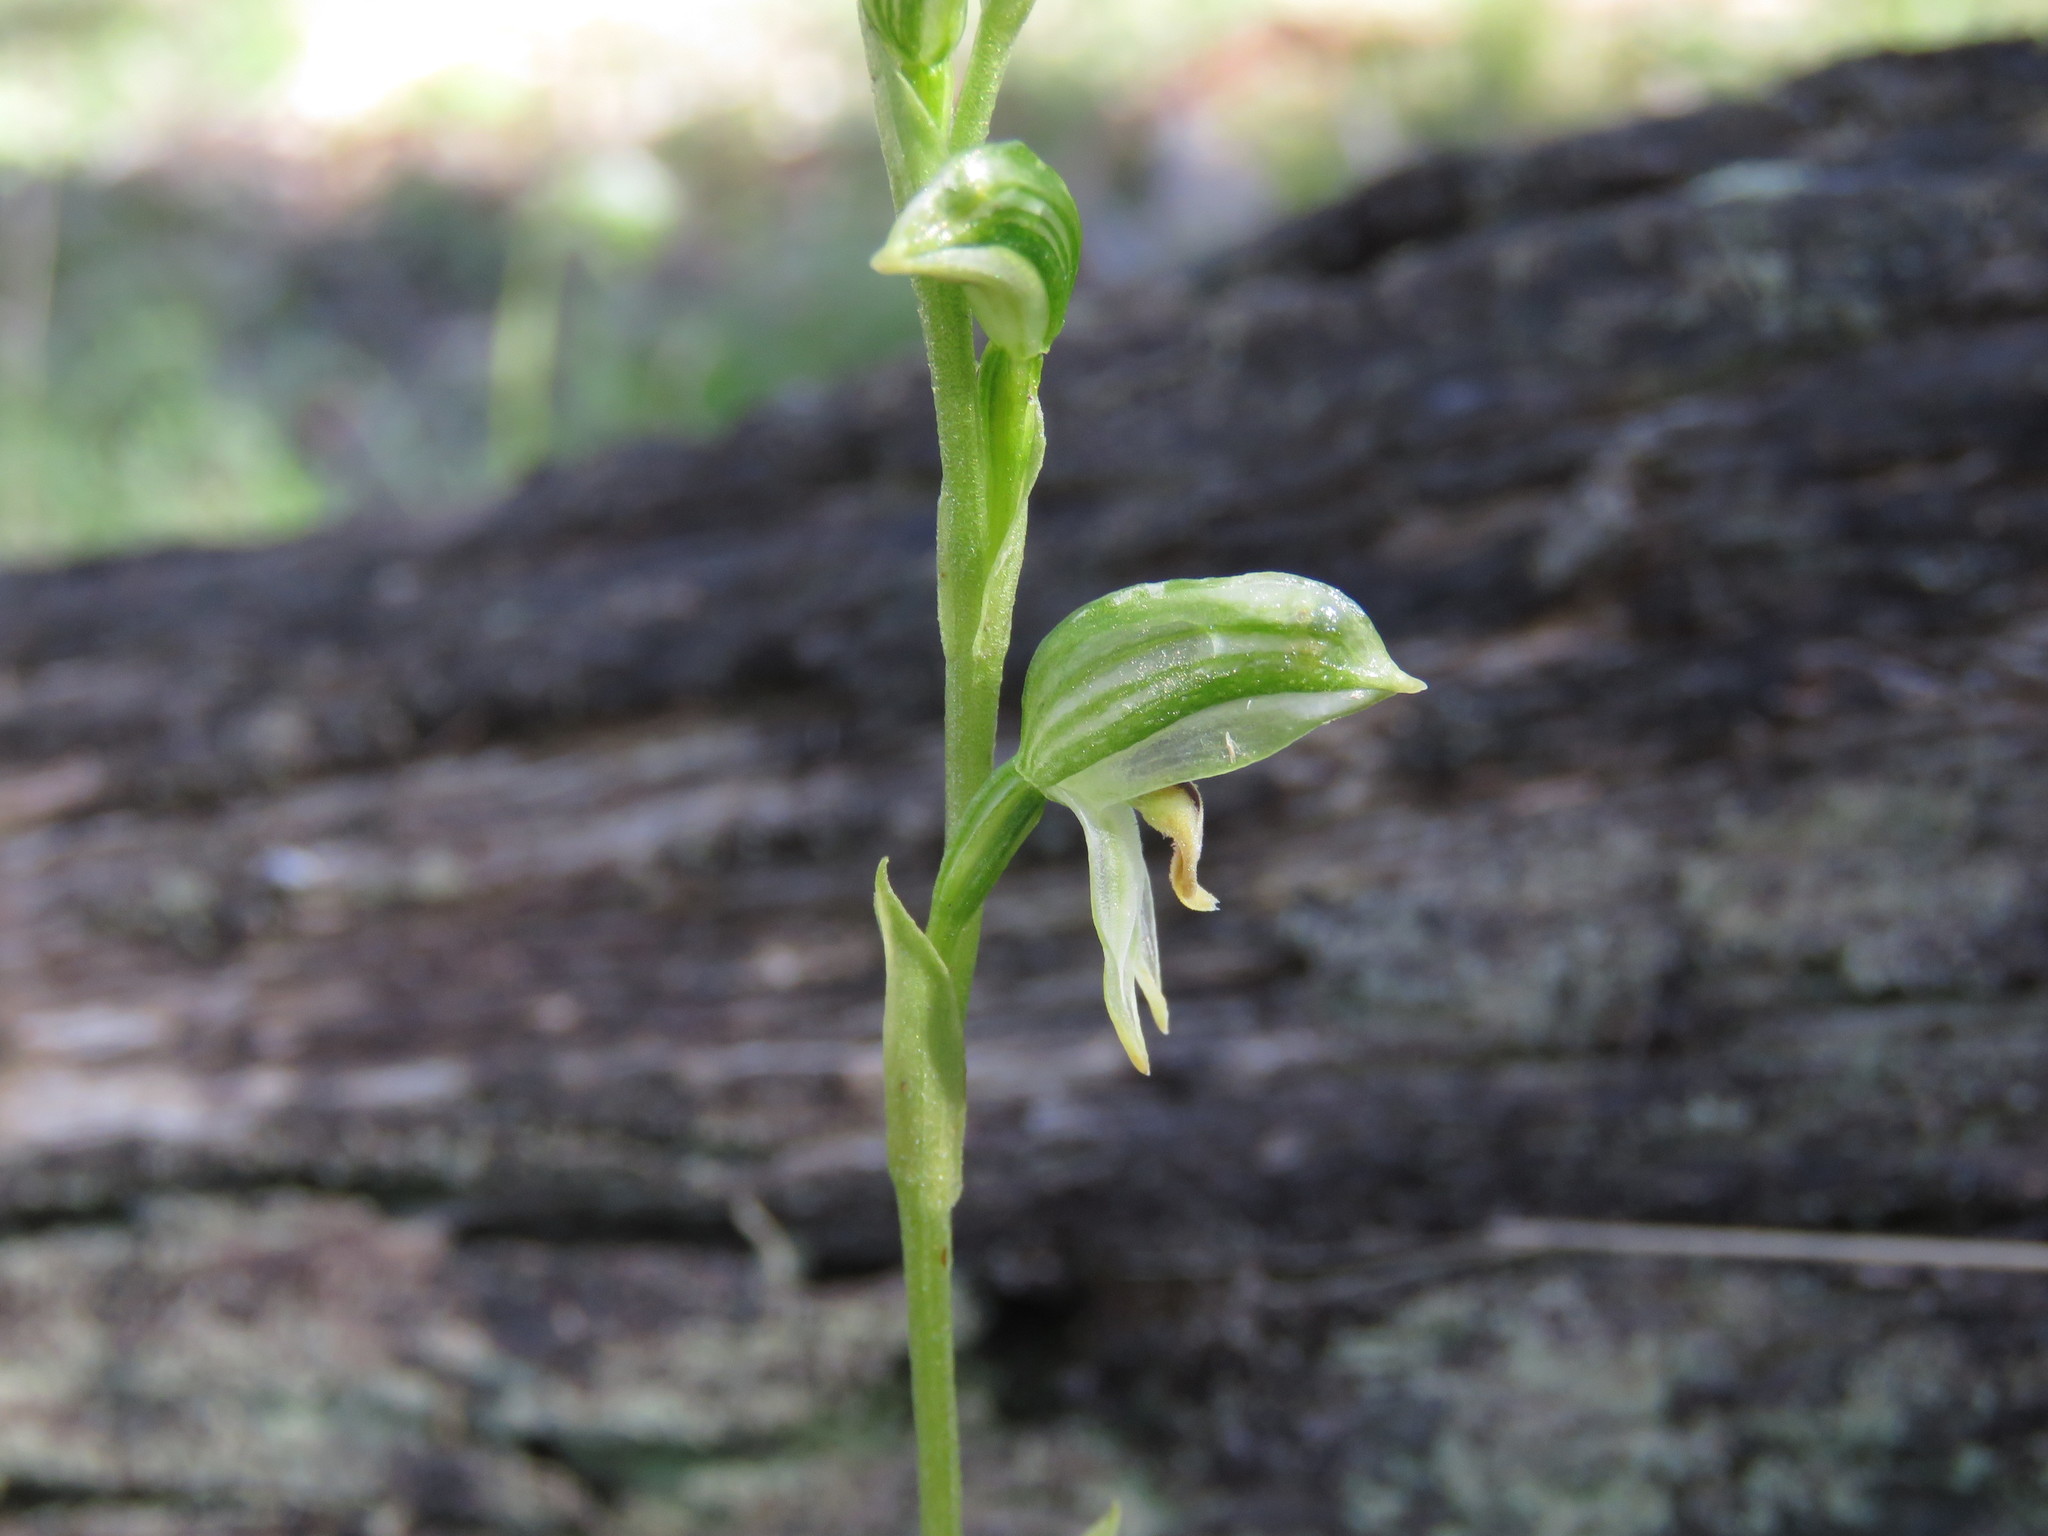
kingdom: Plantae
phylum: Tracheophyta
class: Liliopsida
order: Asparagales
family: Orchidaceae
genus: Pterostylis
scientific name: Pterostylis melagramma
